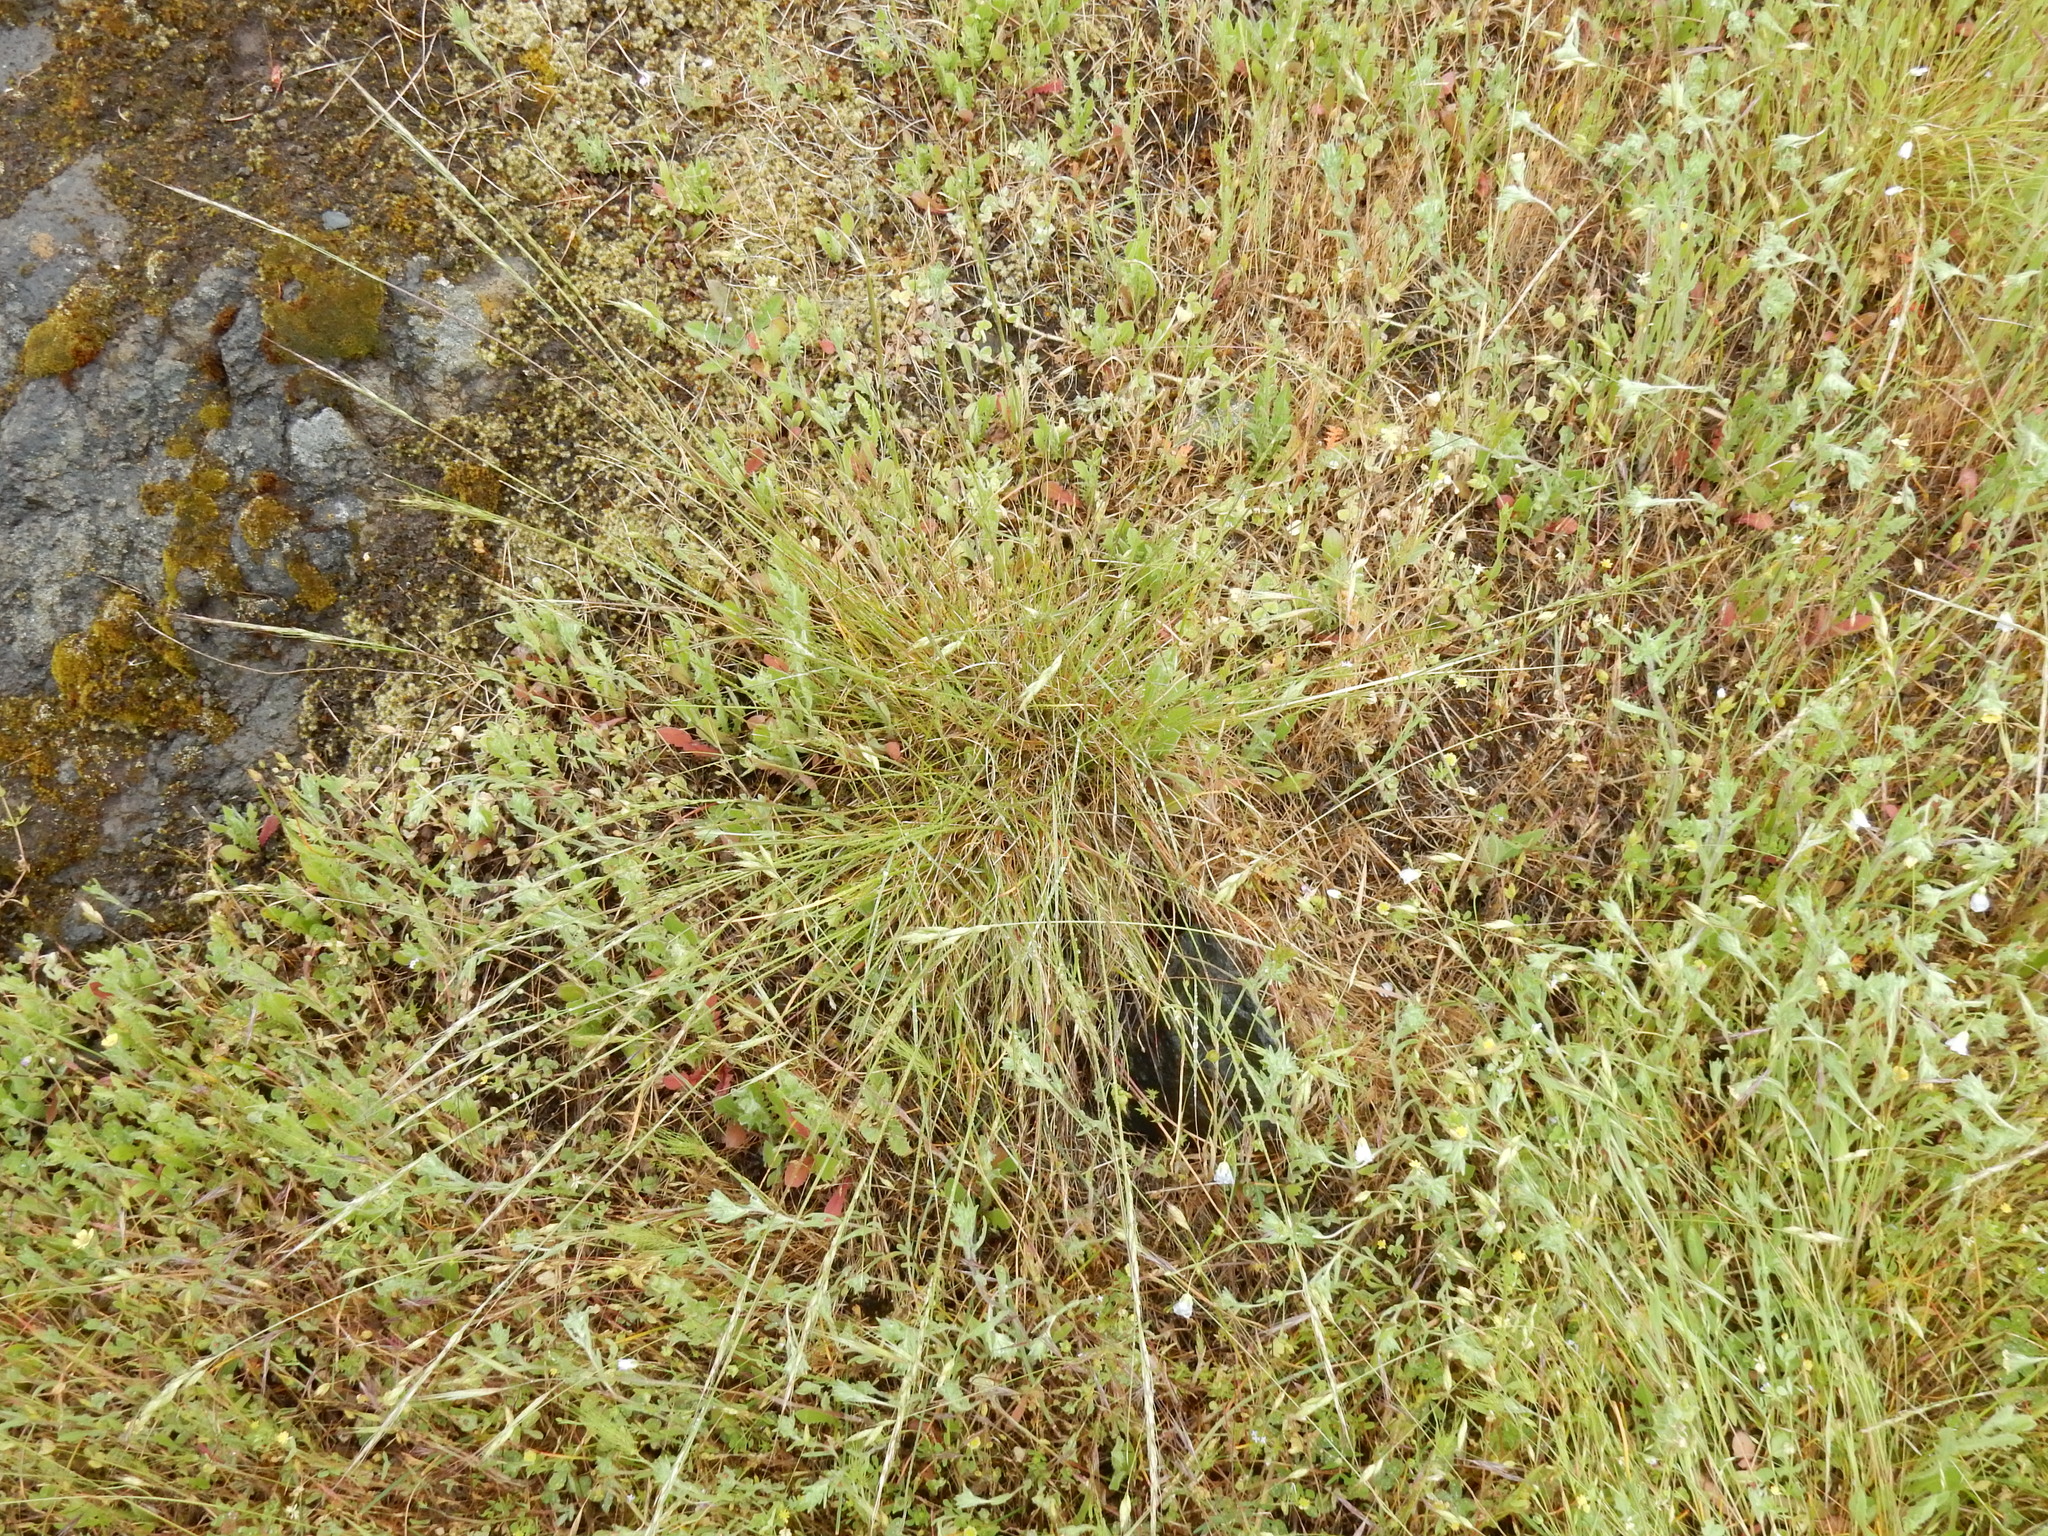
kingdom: Plantae
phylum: Tracheophyta
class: Liliopsida
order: Poales
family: Poaceae
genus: Eriocoma
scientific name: Eriocoma lemmonii
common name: Lemmon's needlegrass
